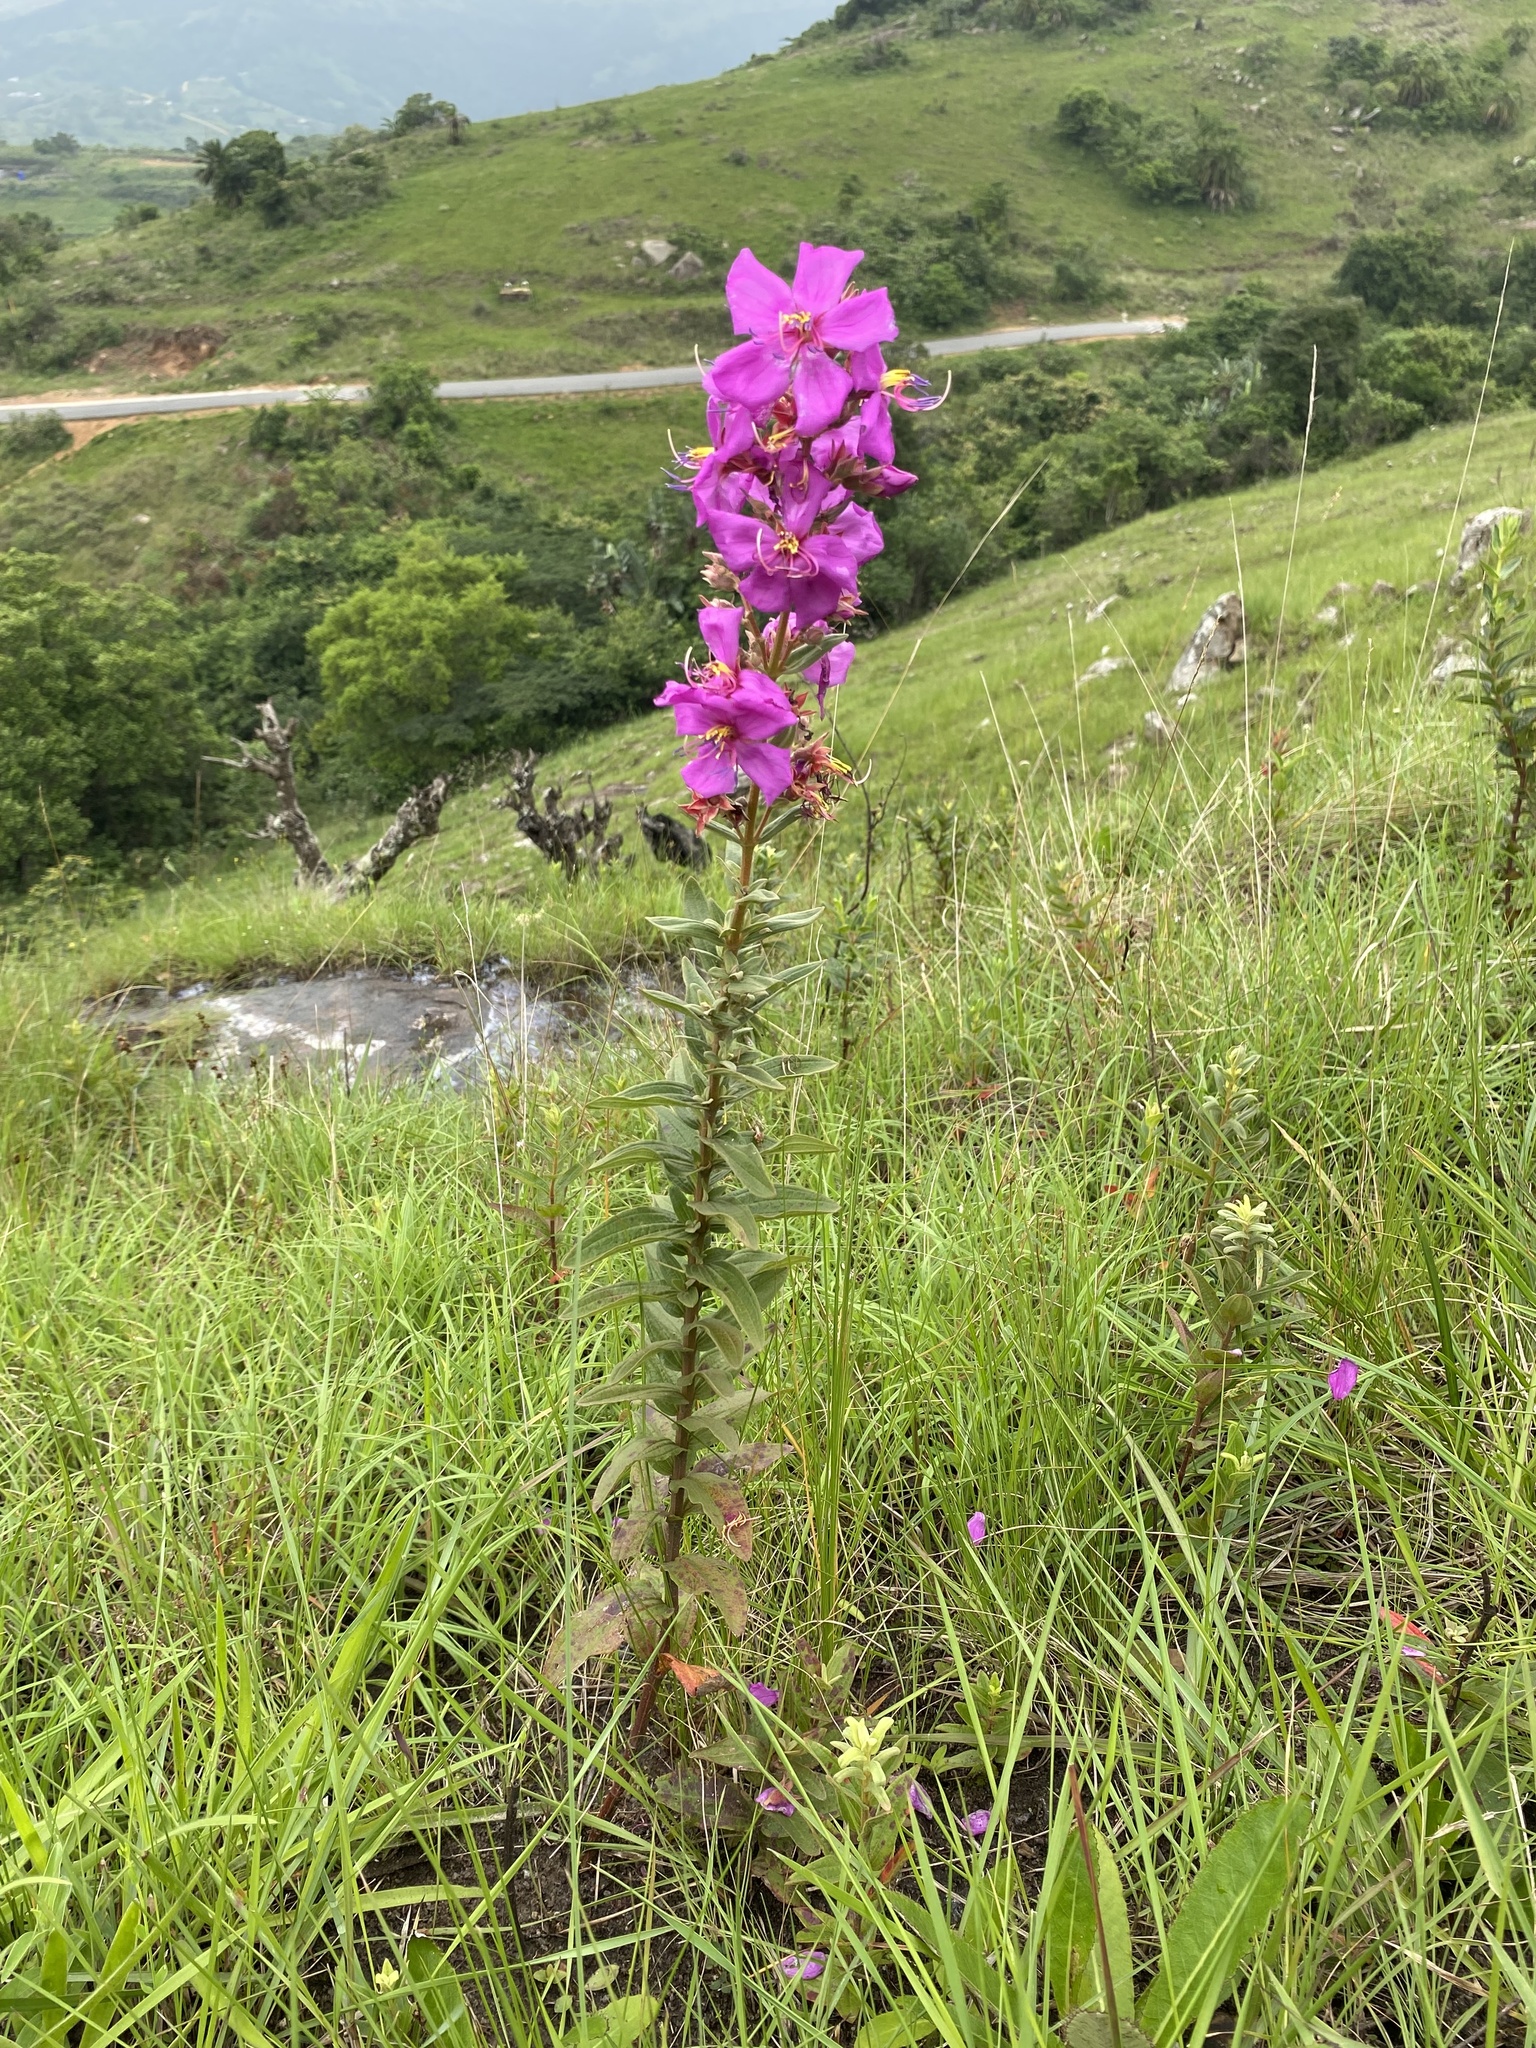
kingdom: Plantae
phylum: Tracheophyta
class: Magnoliopsida
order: Myrtales
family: Melastomataceae
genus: Argyrella
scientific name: Argyrella canescens
